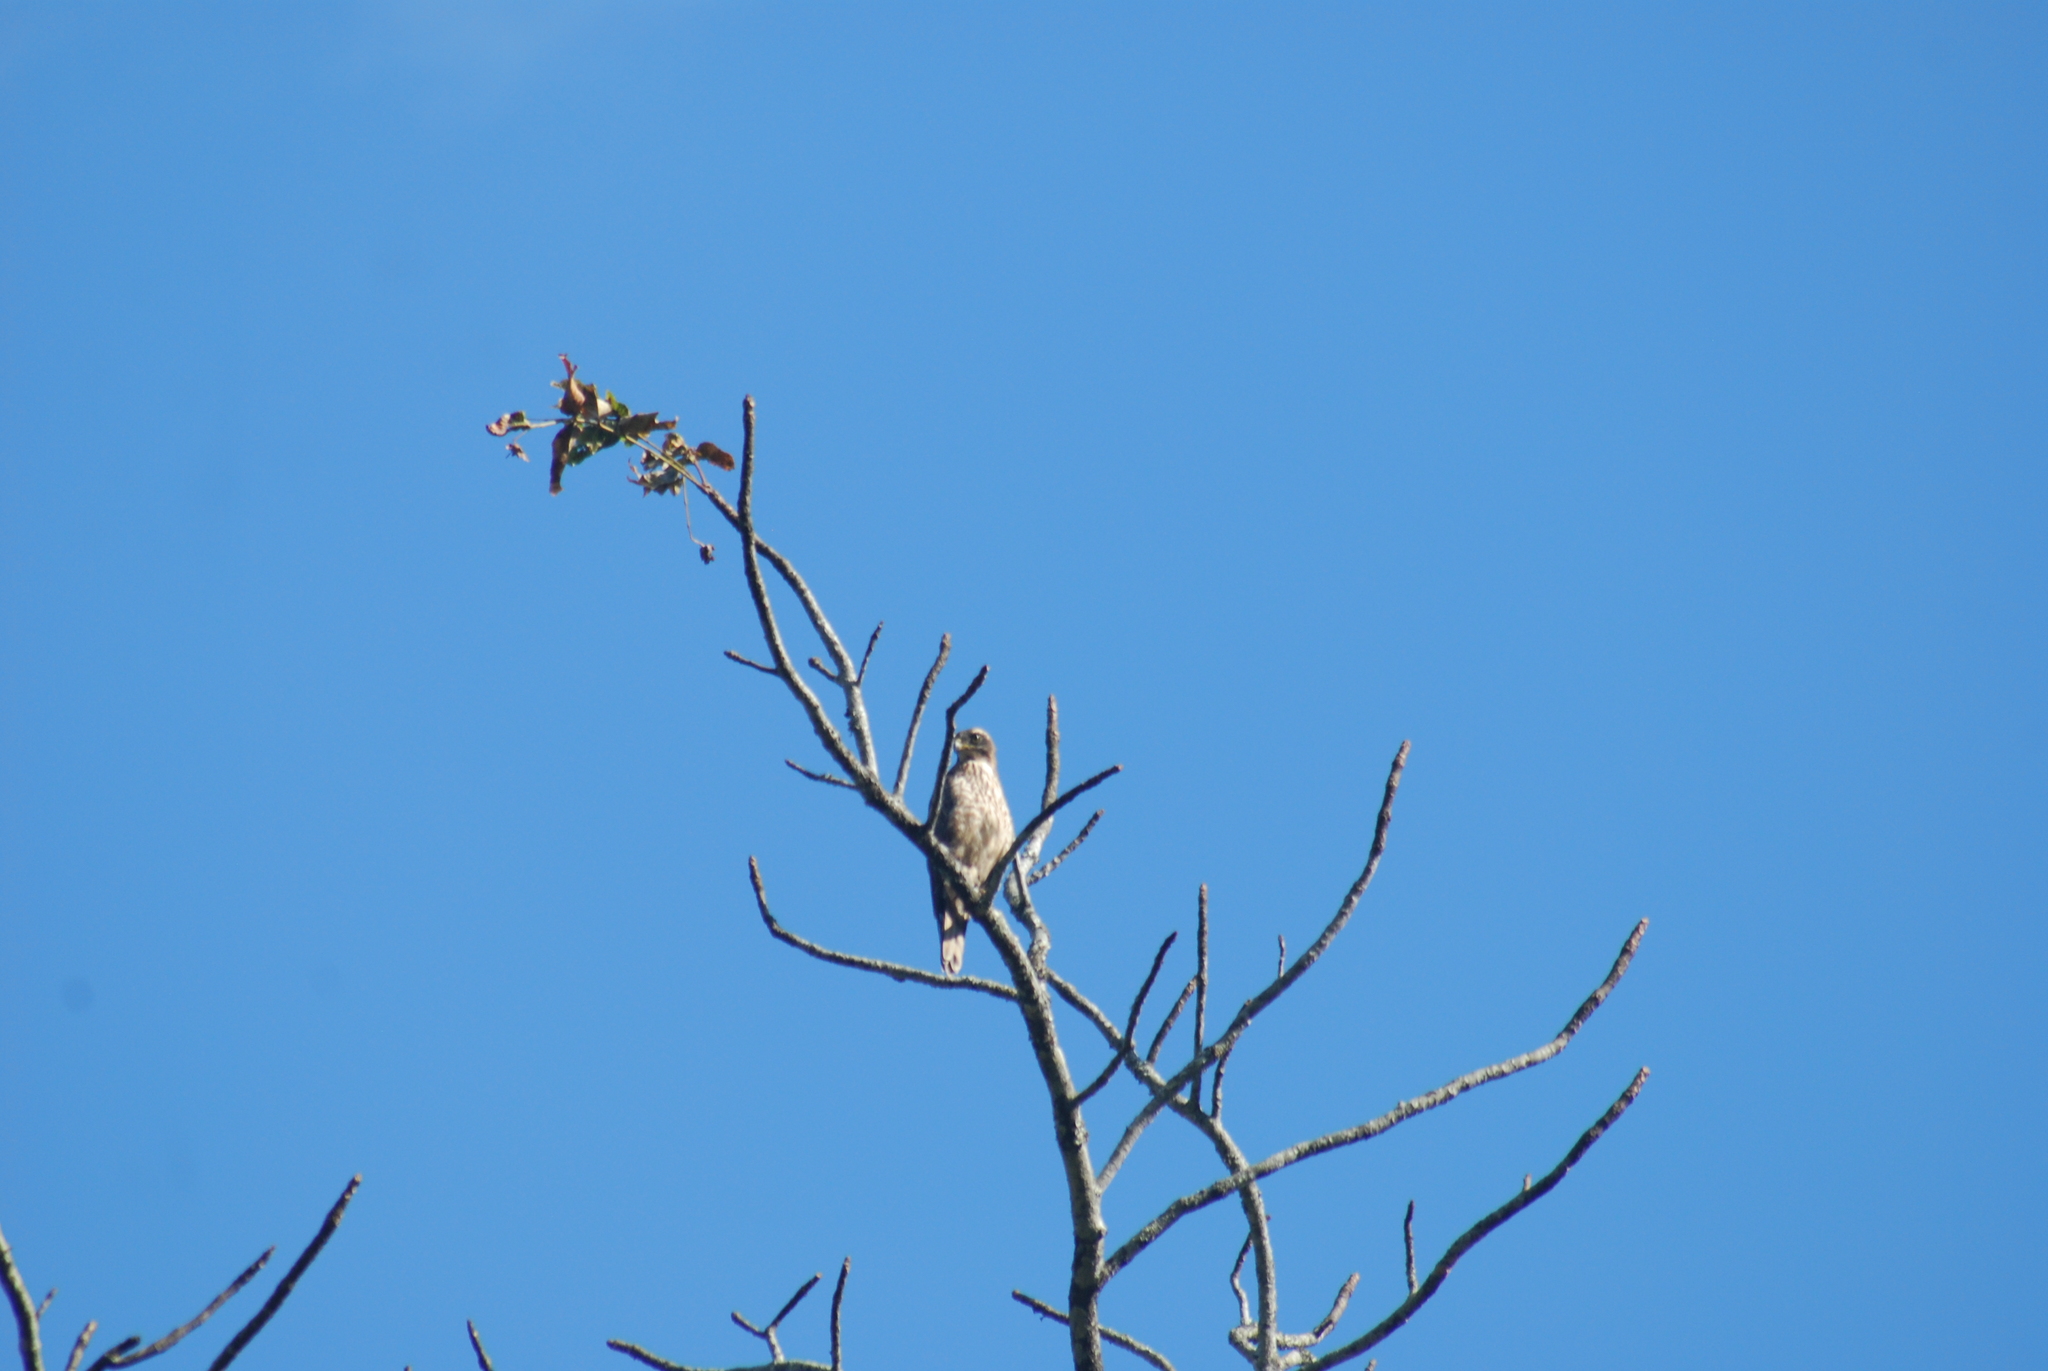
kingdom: Animalia
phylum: Chordata
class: Aves
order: Accipitriformes
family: Accipitridae
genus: Accipiter
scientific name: Accipiter badius
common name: Shikra
